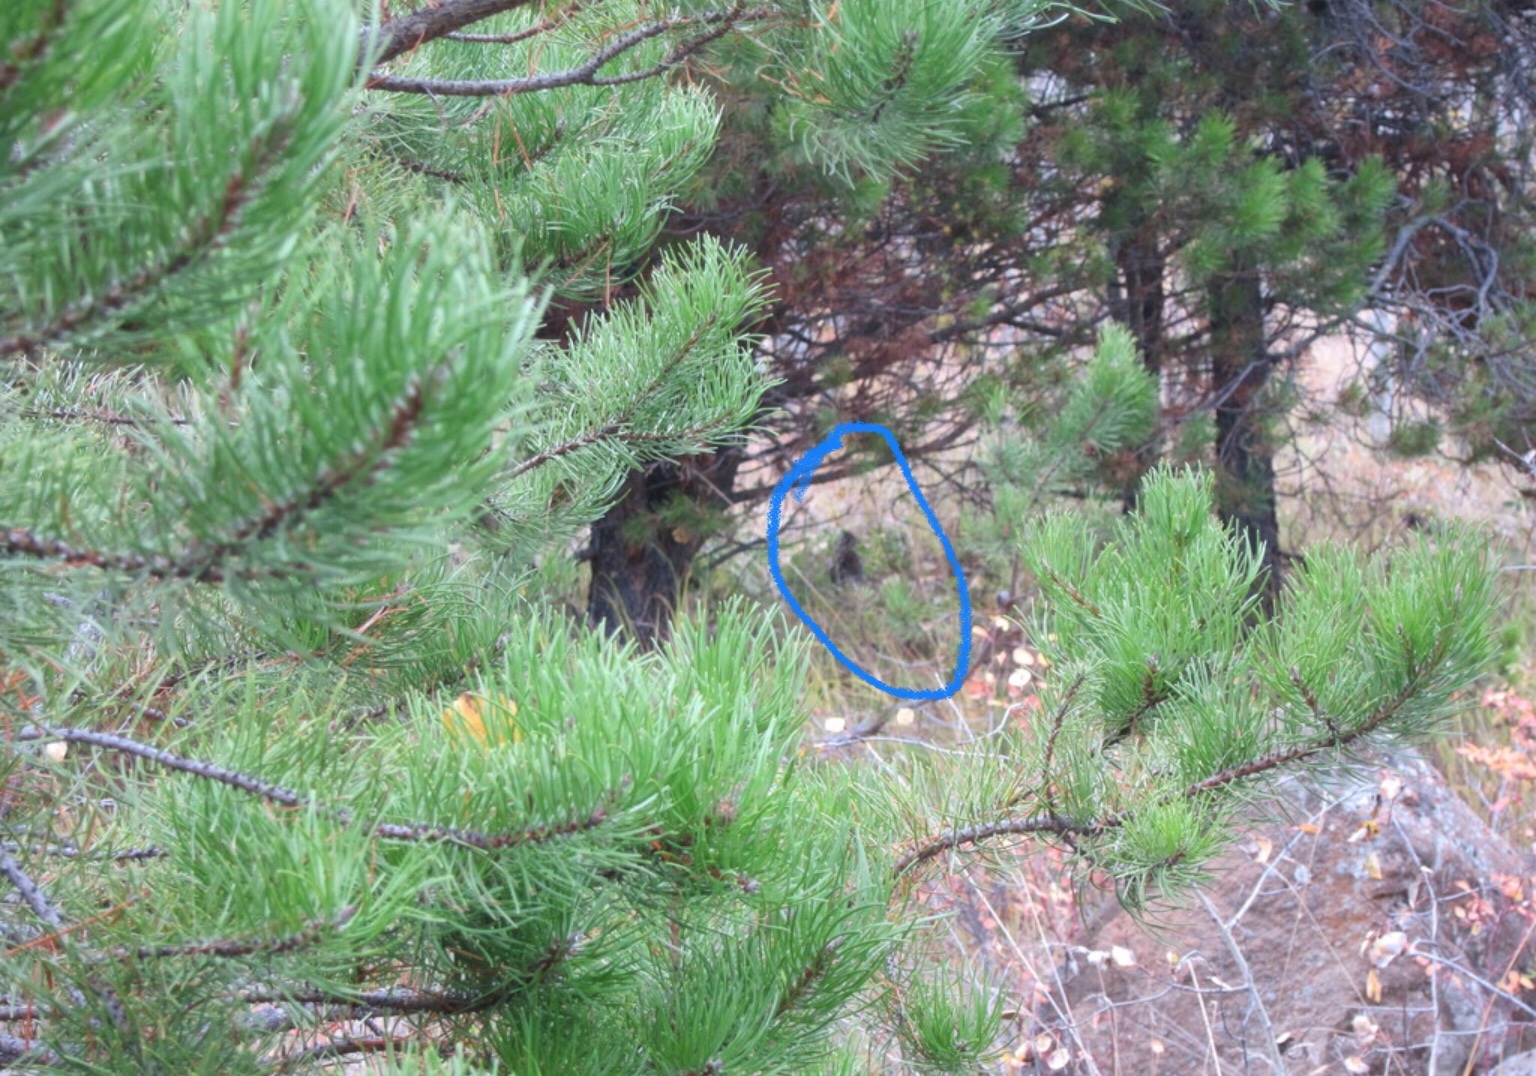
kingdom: Animalia
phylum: Chordata
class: Aves
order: Galliformes
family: Phasianidae
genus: Bonasa
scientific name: Bonasa umbellus
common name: Ruffed grouse
